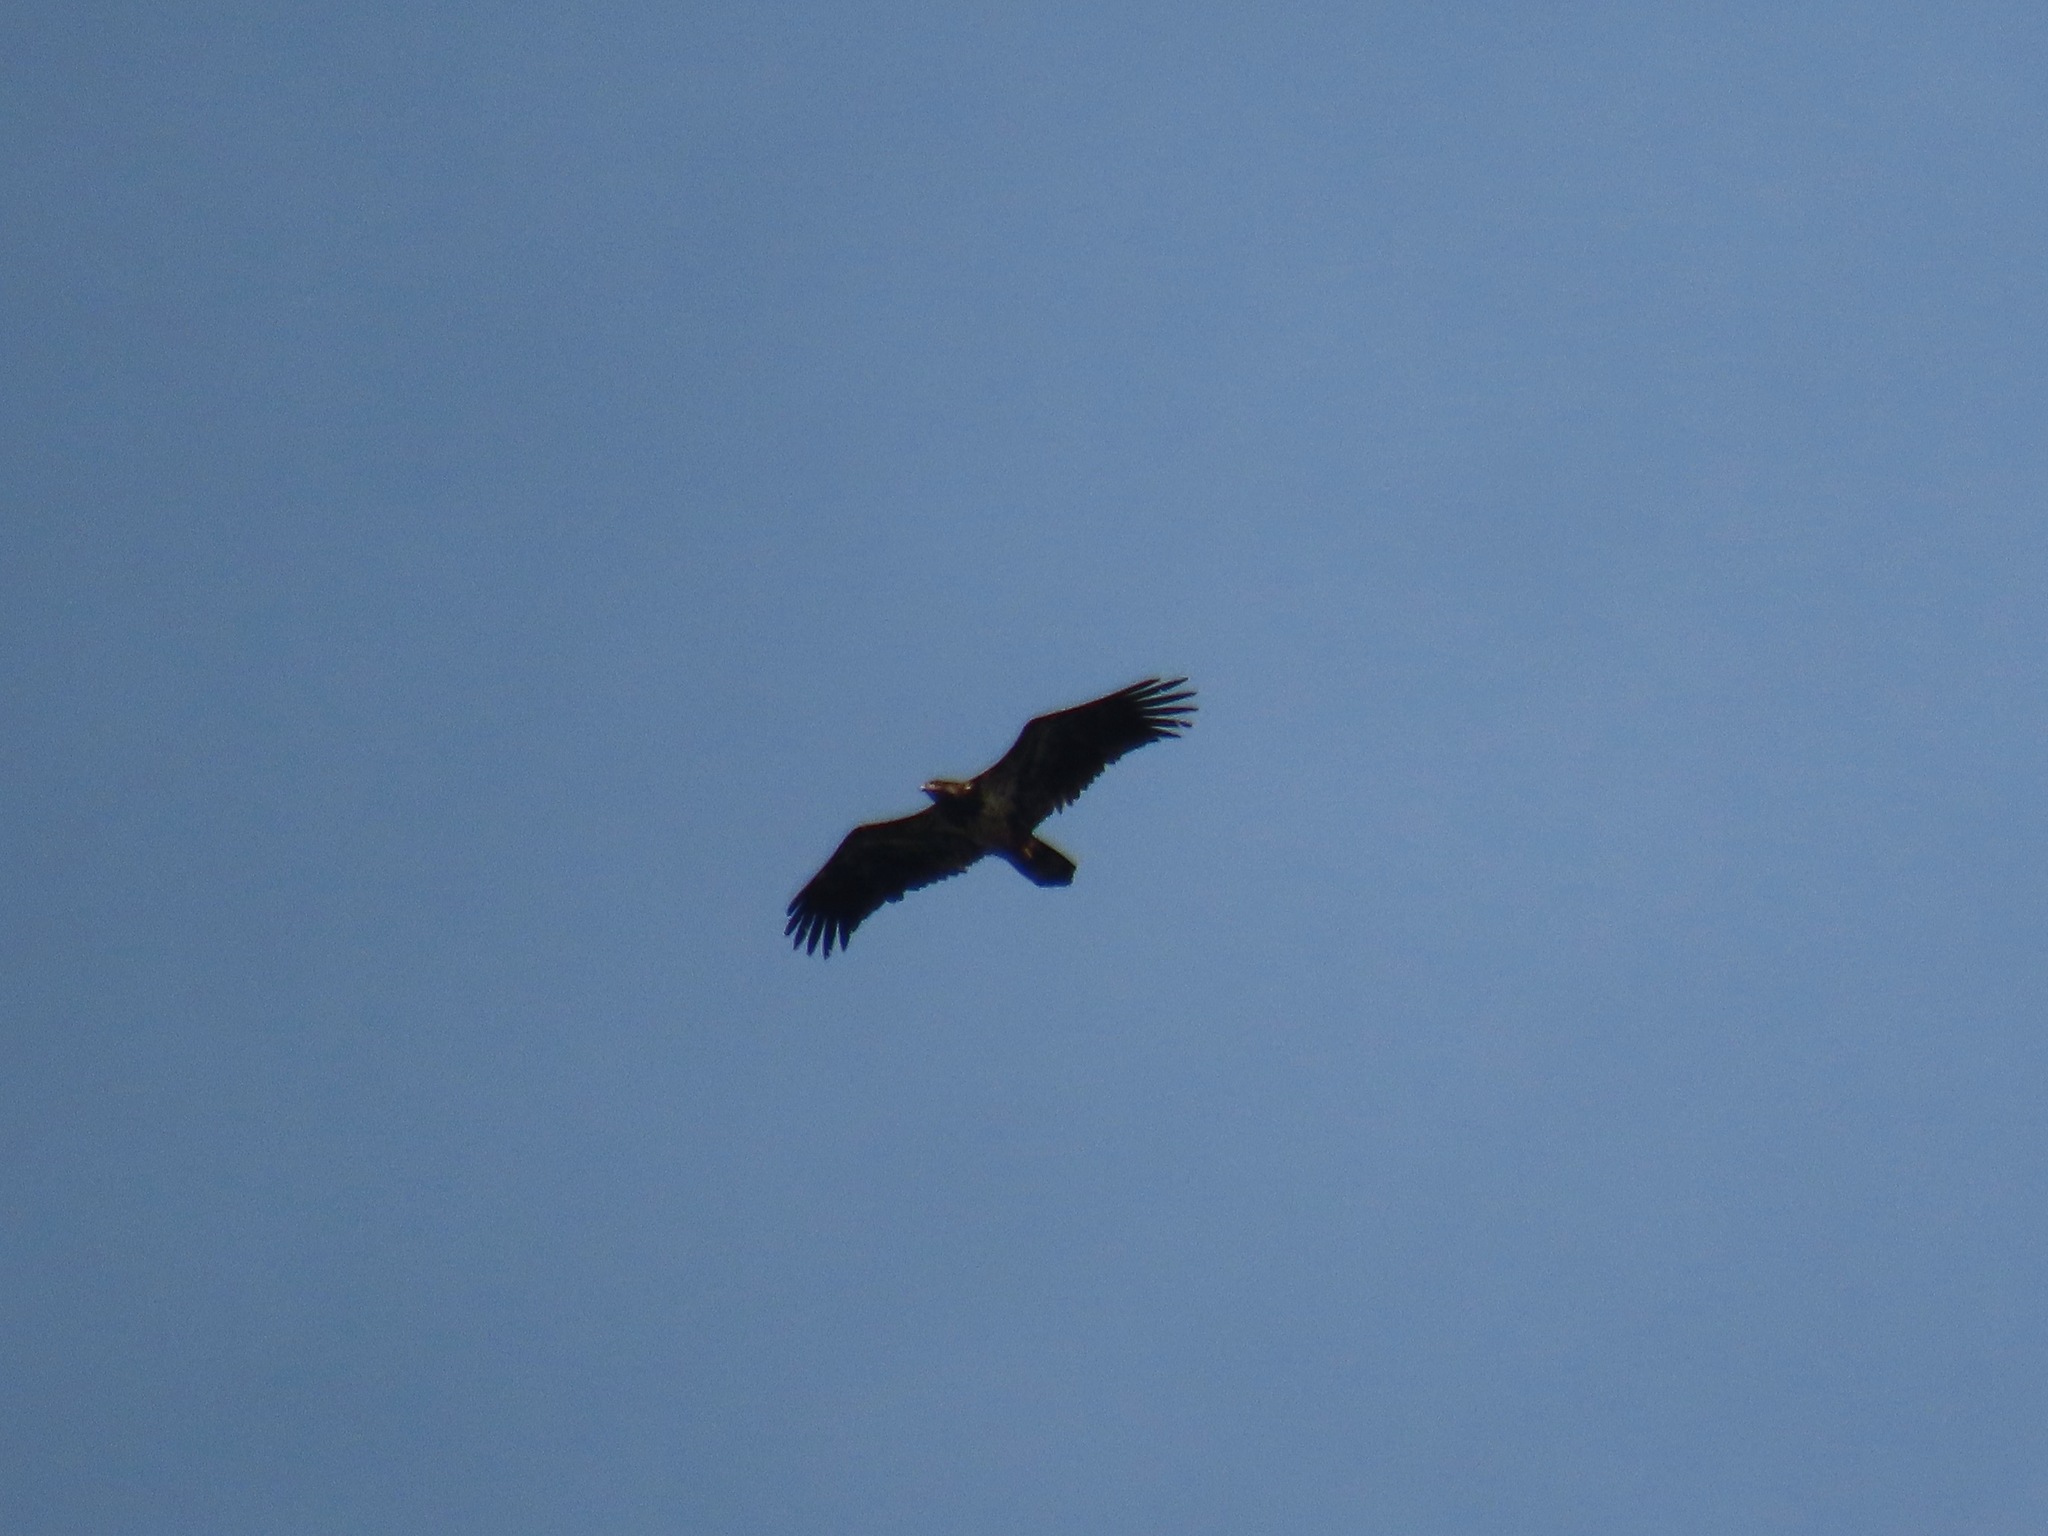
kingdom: Animalia
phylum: Chordata
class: Aves
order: Accipitriformes
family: Accipitridae
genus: Haliaeetus
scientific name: Haliaeetus leucocephalus
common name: Bald eagle
